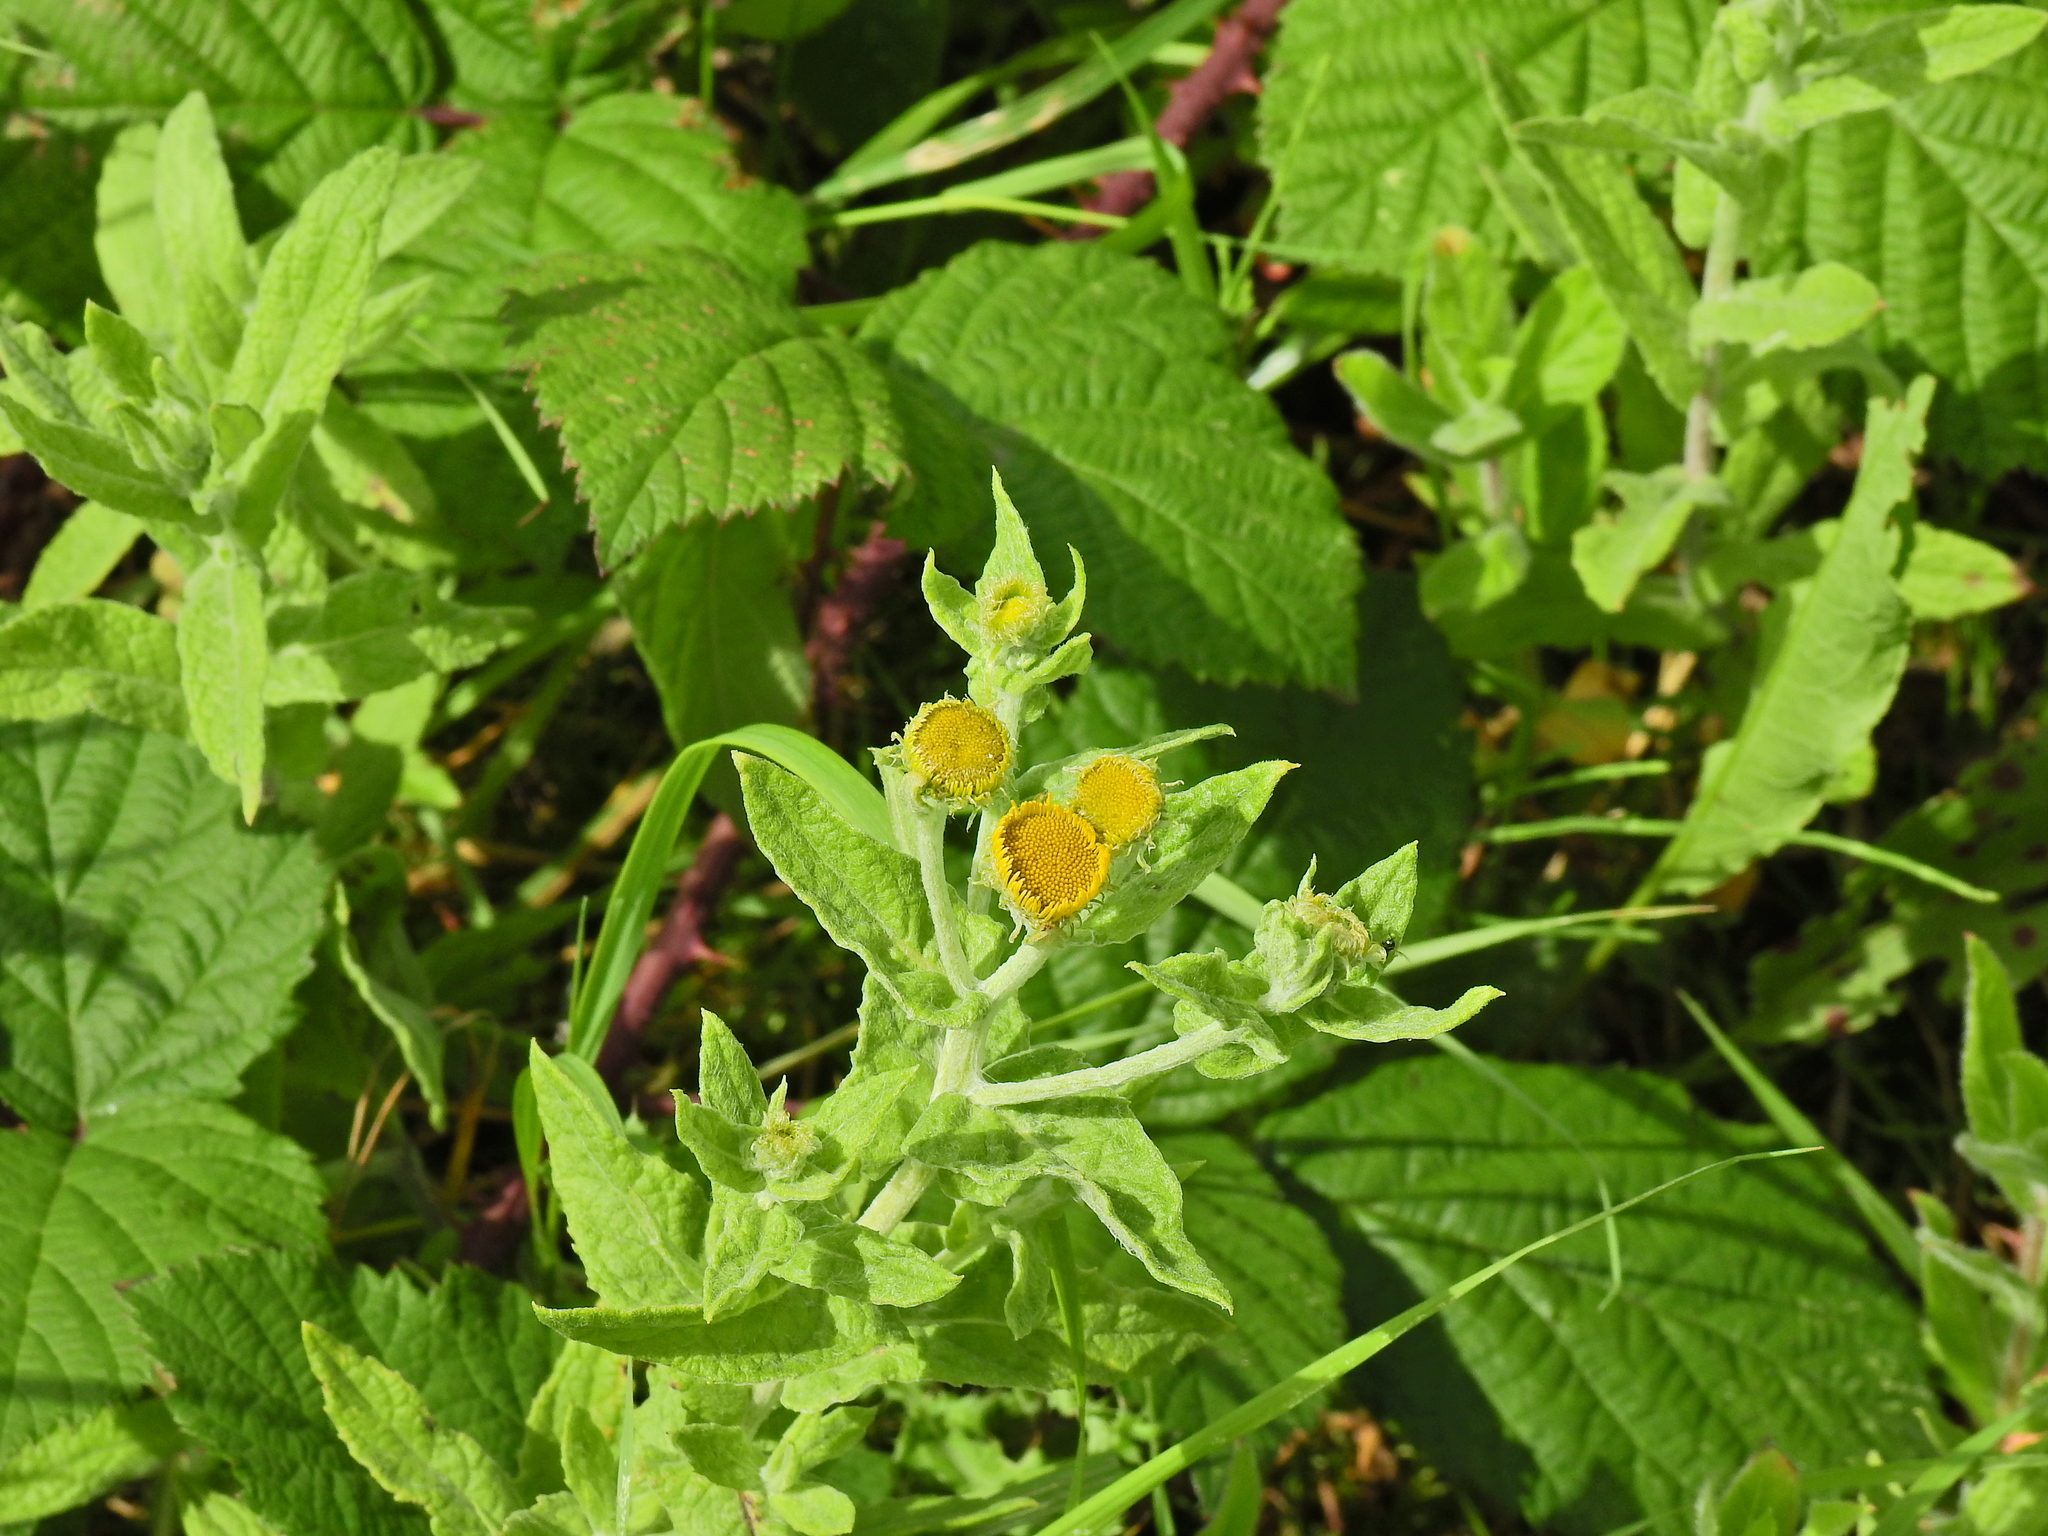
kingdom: Plantae
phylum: Tracheophyta
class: Magnoliopsida
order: Asterales
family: Asteraceae
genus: Pulicaria
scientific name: Pulicaria dysenterica
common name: Common fleabane
